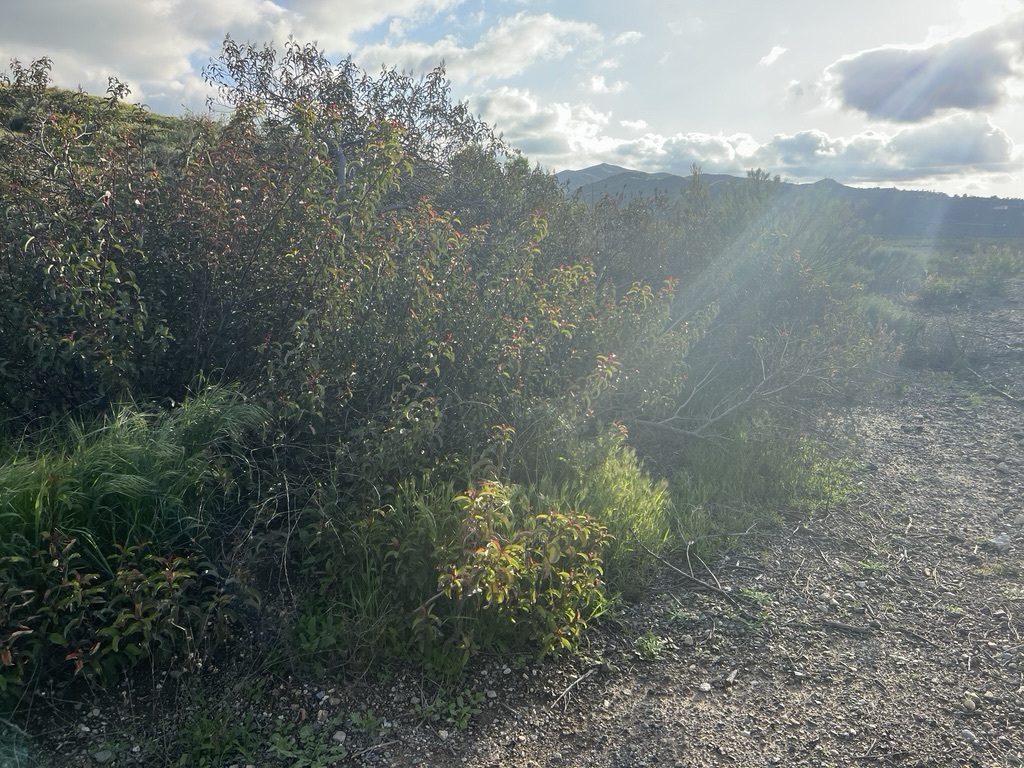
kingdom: Plantae
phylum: Tracheophyta
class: Magnoliopsida
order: Sapindales
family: Anacardiaceae
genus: Malosma
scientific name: Malosma laurina
